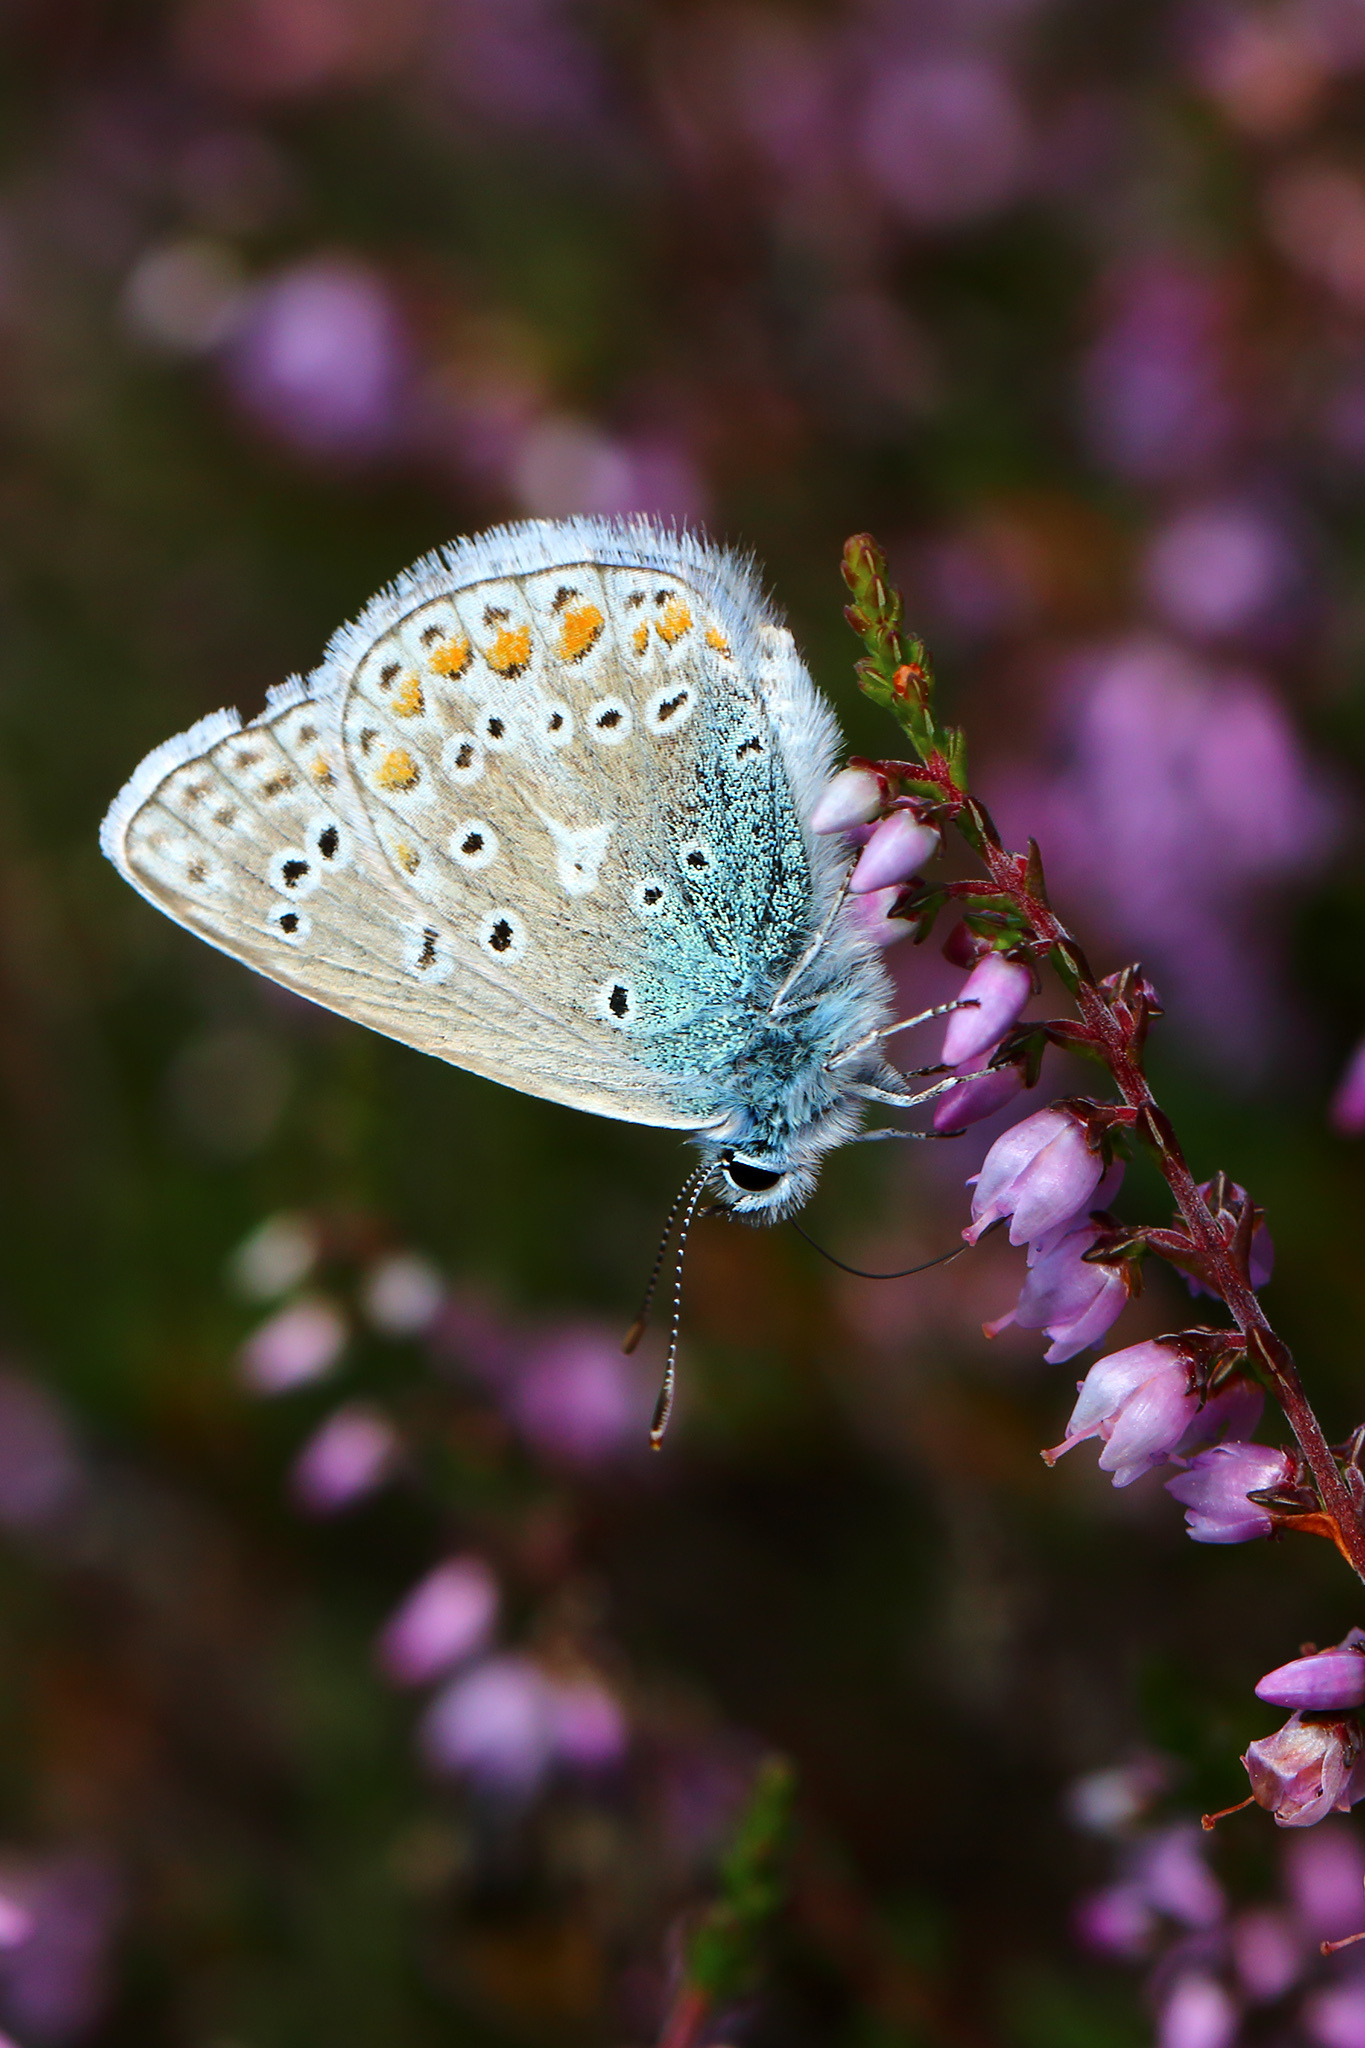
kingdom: Animalia
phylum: Arthropoda
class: Insecta
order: Lepidoptera
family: Lycaenidae
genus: Polyommatus
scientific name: Polyommatus icarus
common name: Common blue
